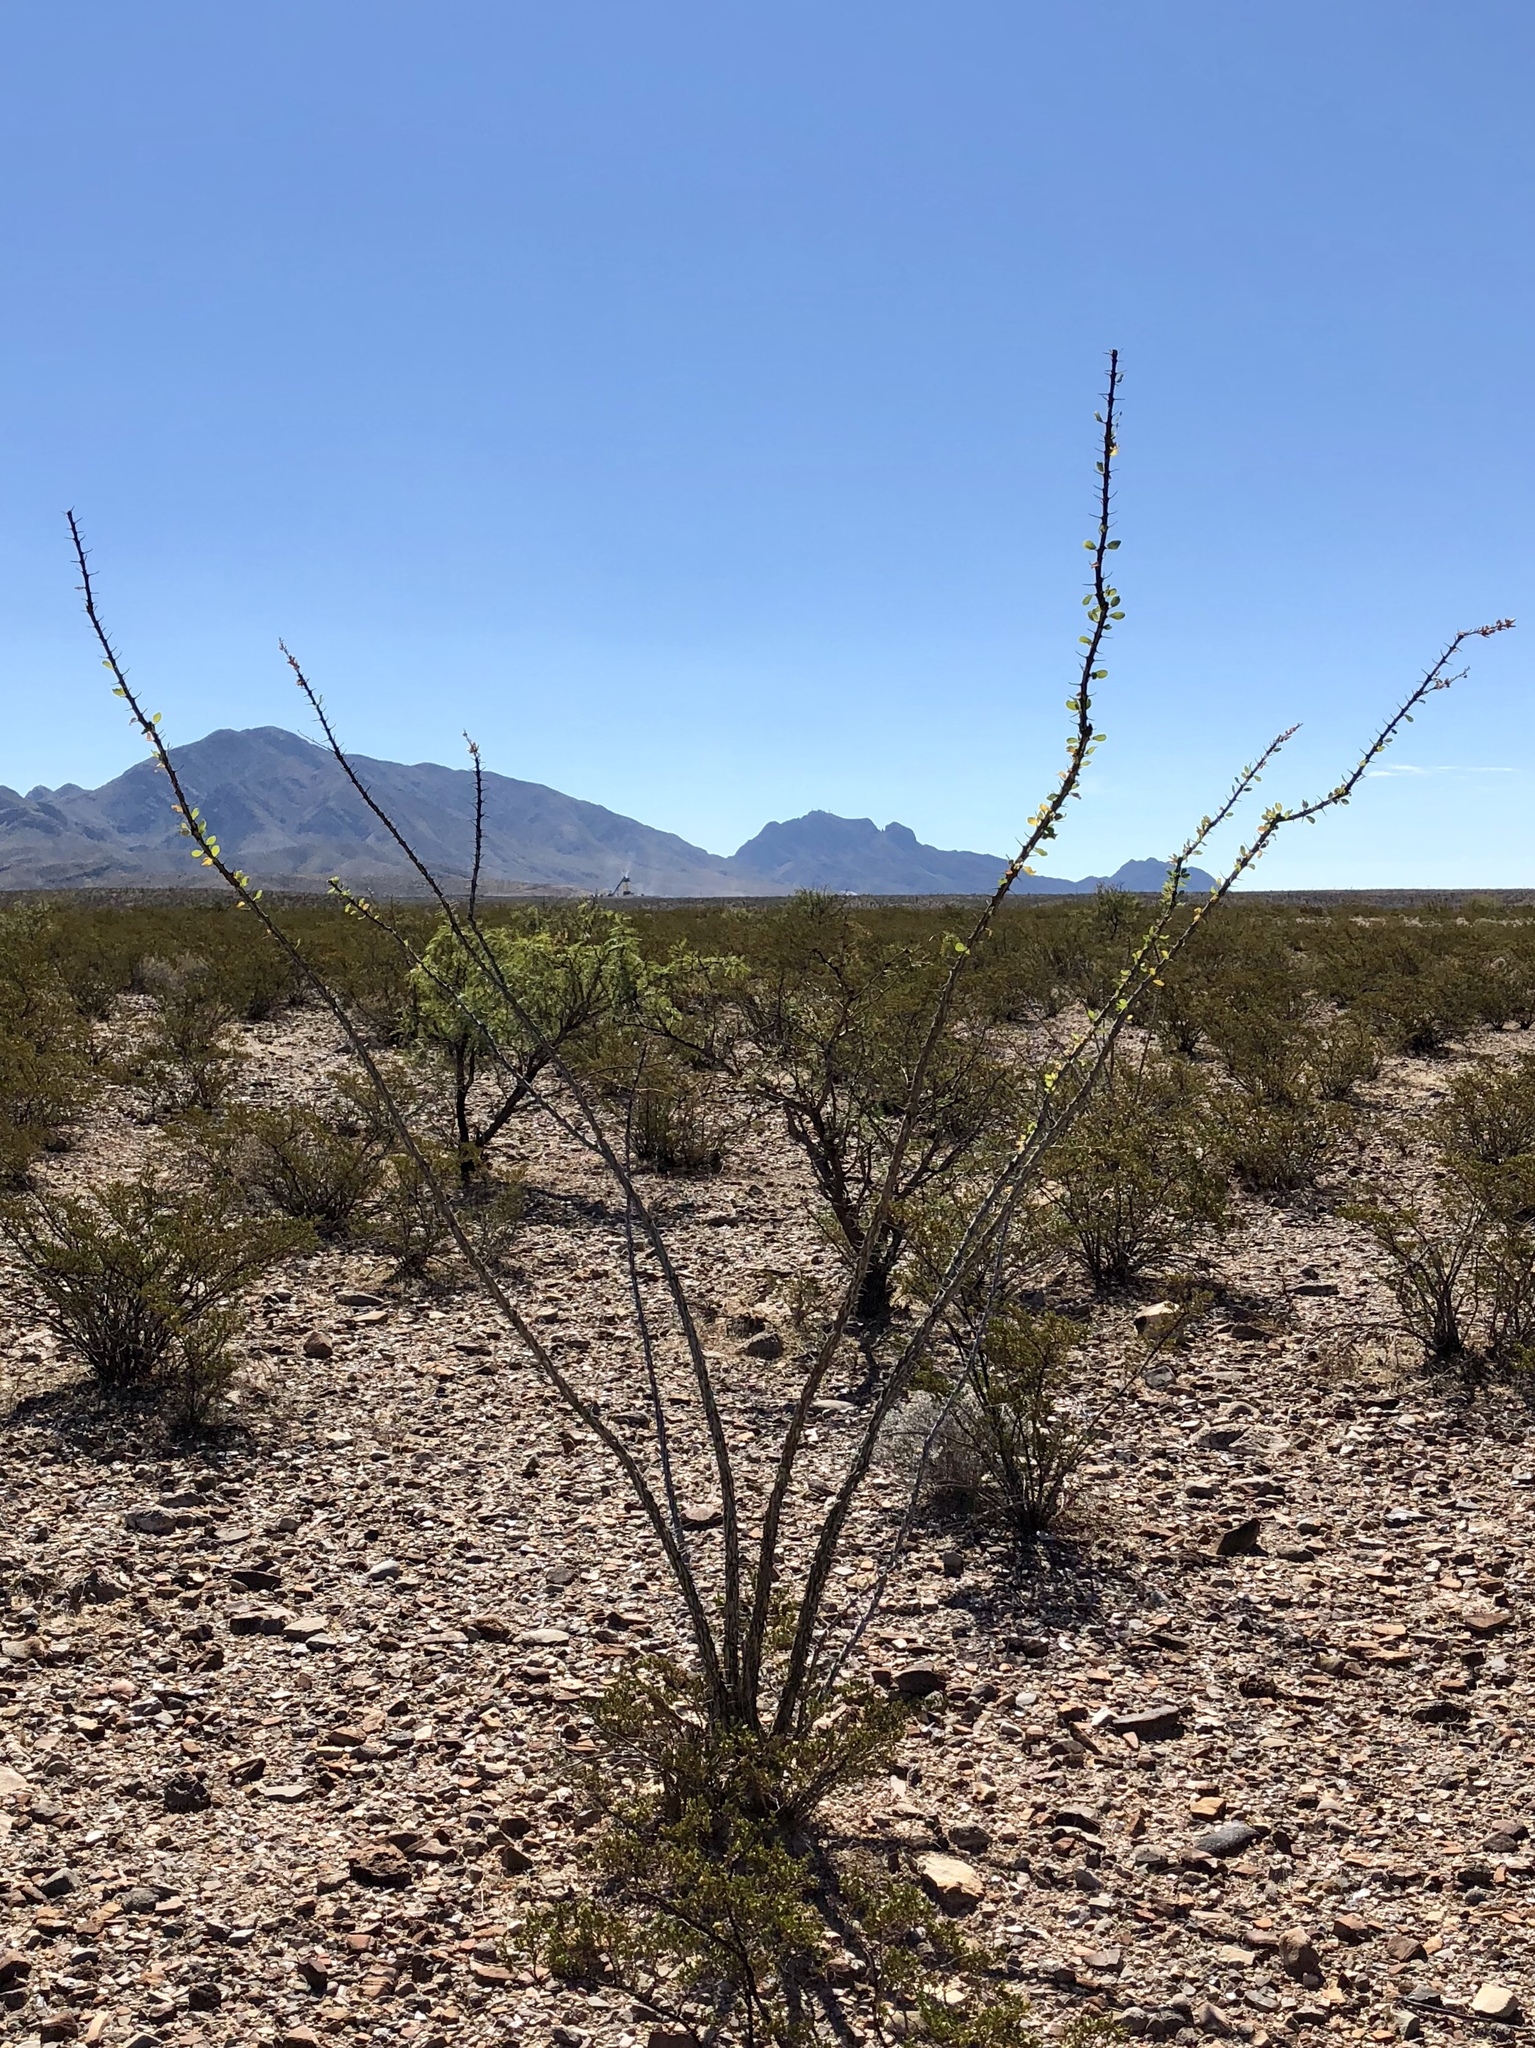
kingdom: Plantae
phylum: Tracheophyta
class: Magnoliopsida
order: Ericales
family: Fouquieriaceae
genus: Fouquieria
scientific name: Fouquieria splendens
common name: Vine-cactus
